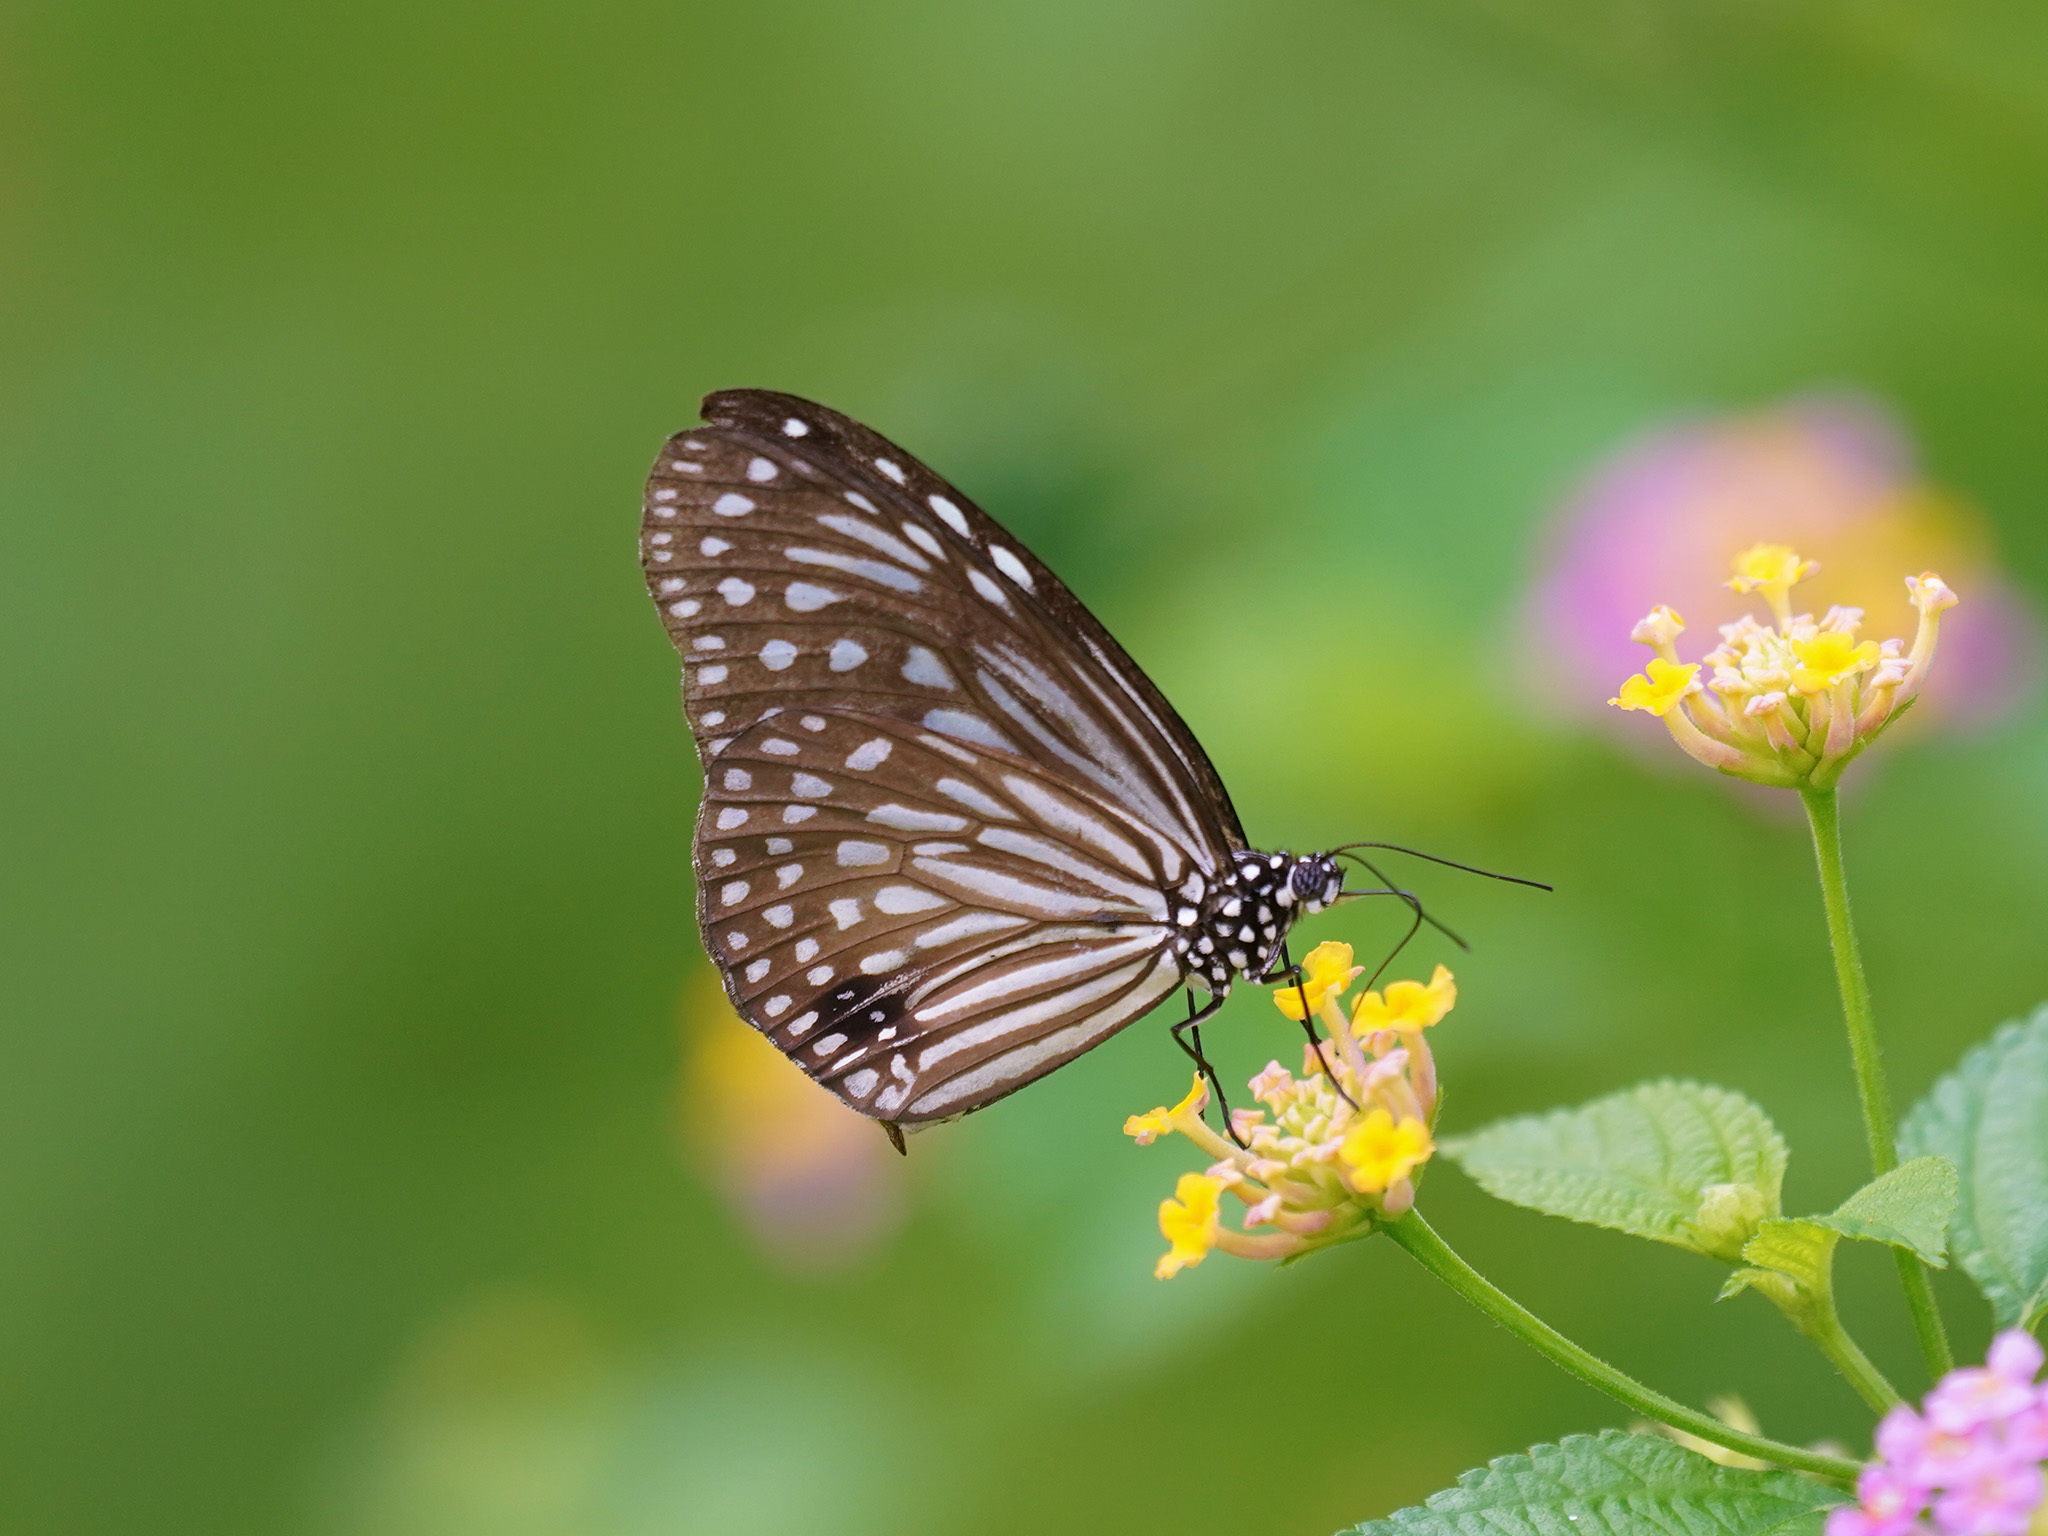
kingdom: Animalia
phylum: Arthropoda
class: Insecta
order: Lepidoptera
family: Nymphalidae
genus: Parantica
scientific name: Parantica agleoides
